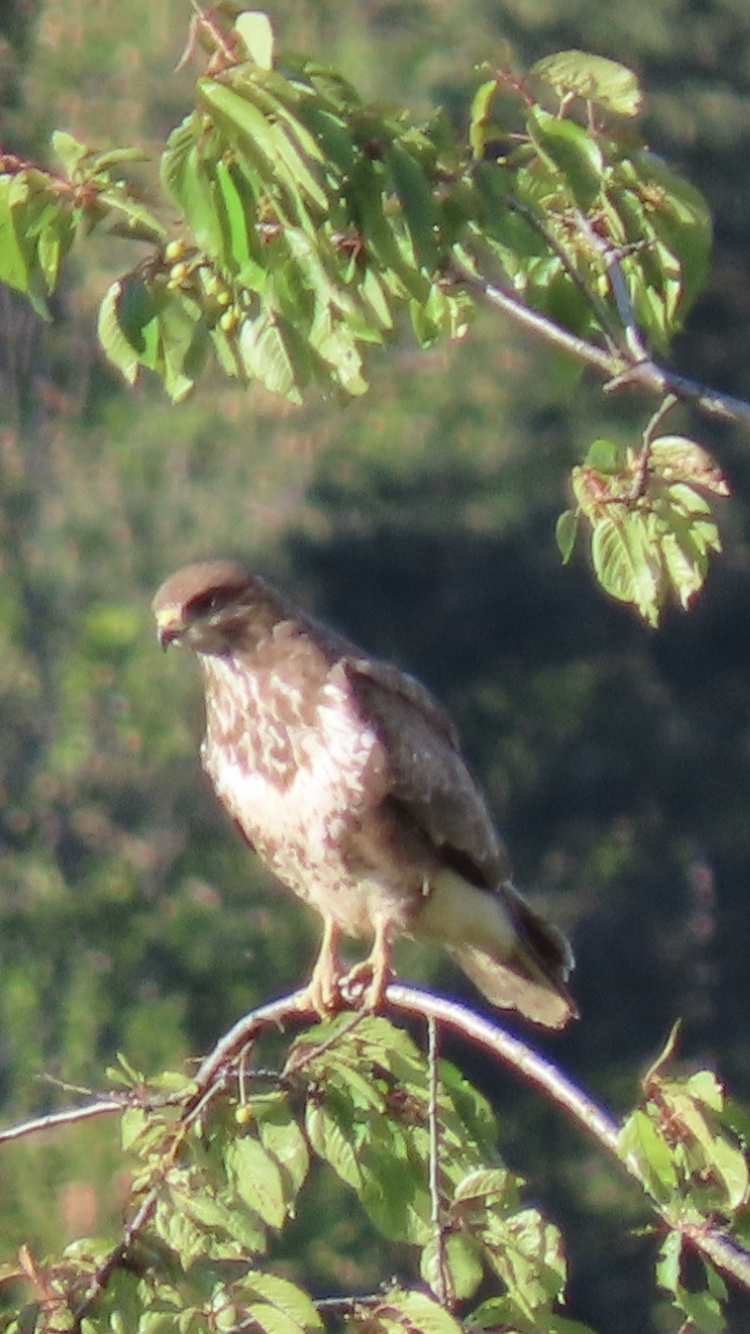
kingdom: Animalia
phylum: Chordata
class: Aves
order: Accipitriformes
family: Accipitridae
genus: Buteo
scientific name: Buteo buteo
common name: Common buzzard
